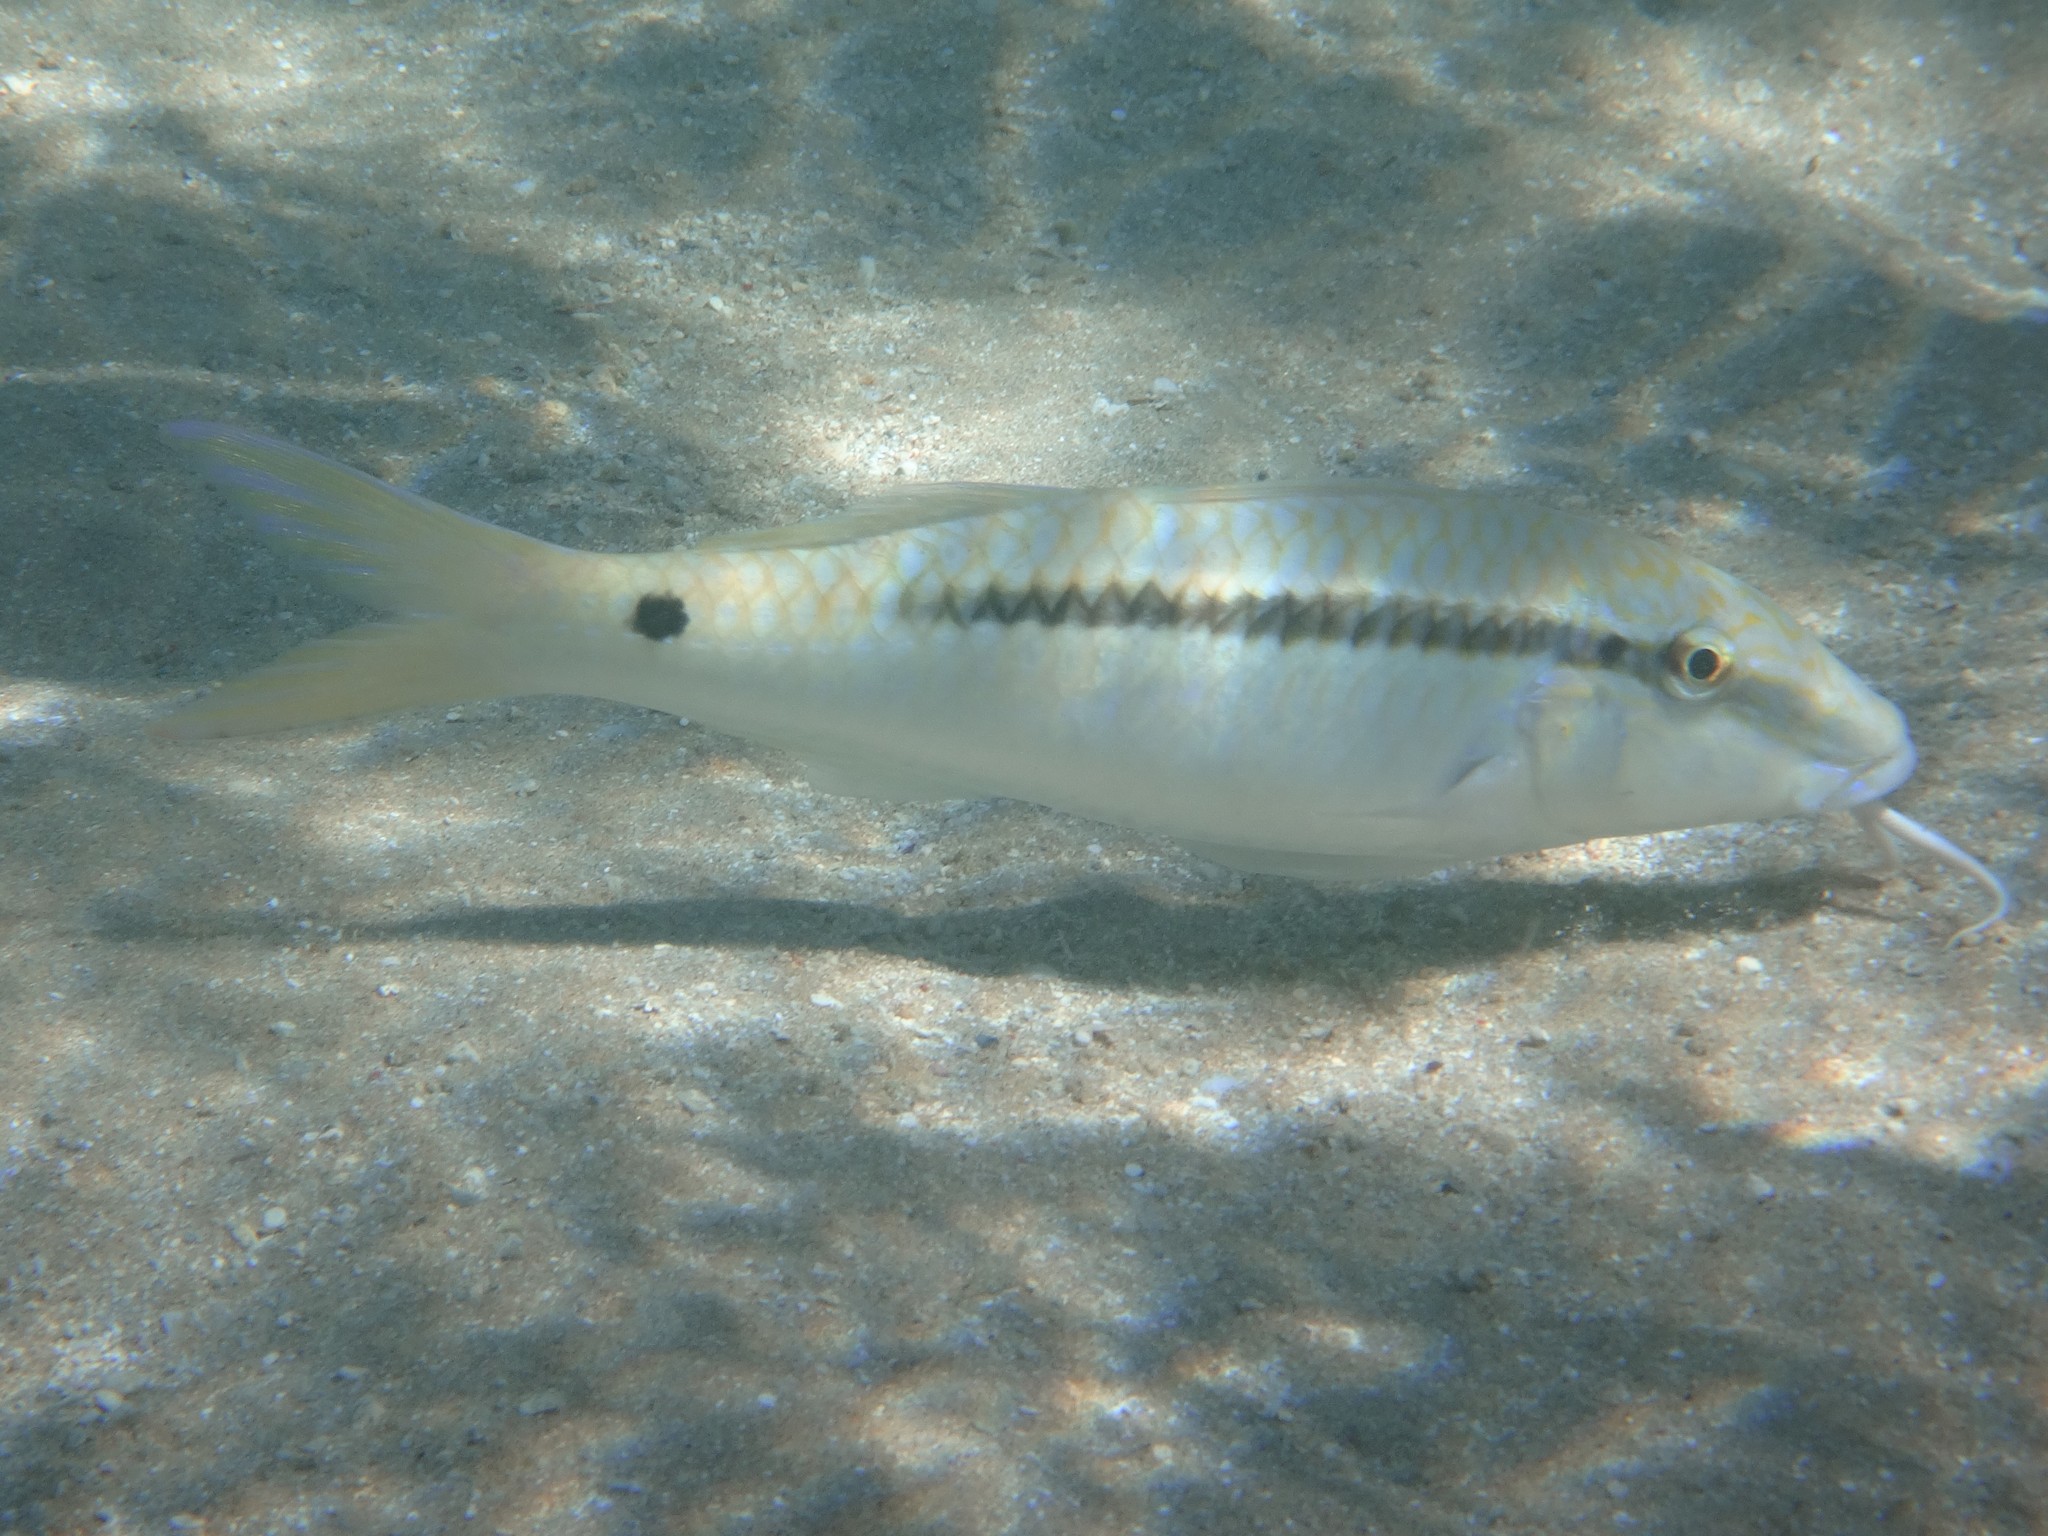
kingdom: Animalia
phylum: Chordata
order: Perciformes
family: Mullidae
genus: Parupeneus
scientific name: Parupeneus forsskali
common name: Red sea goatfish
